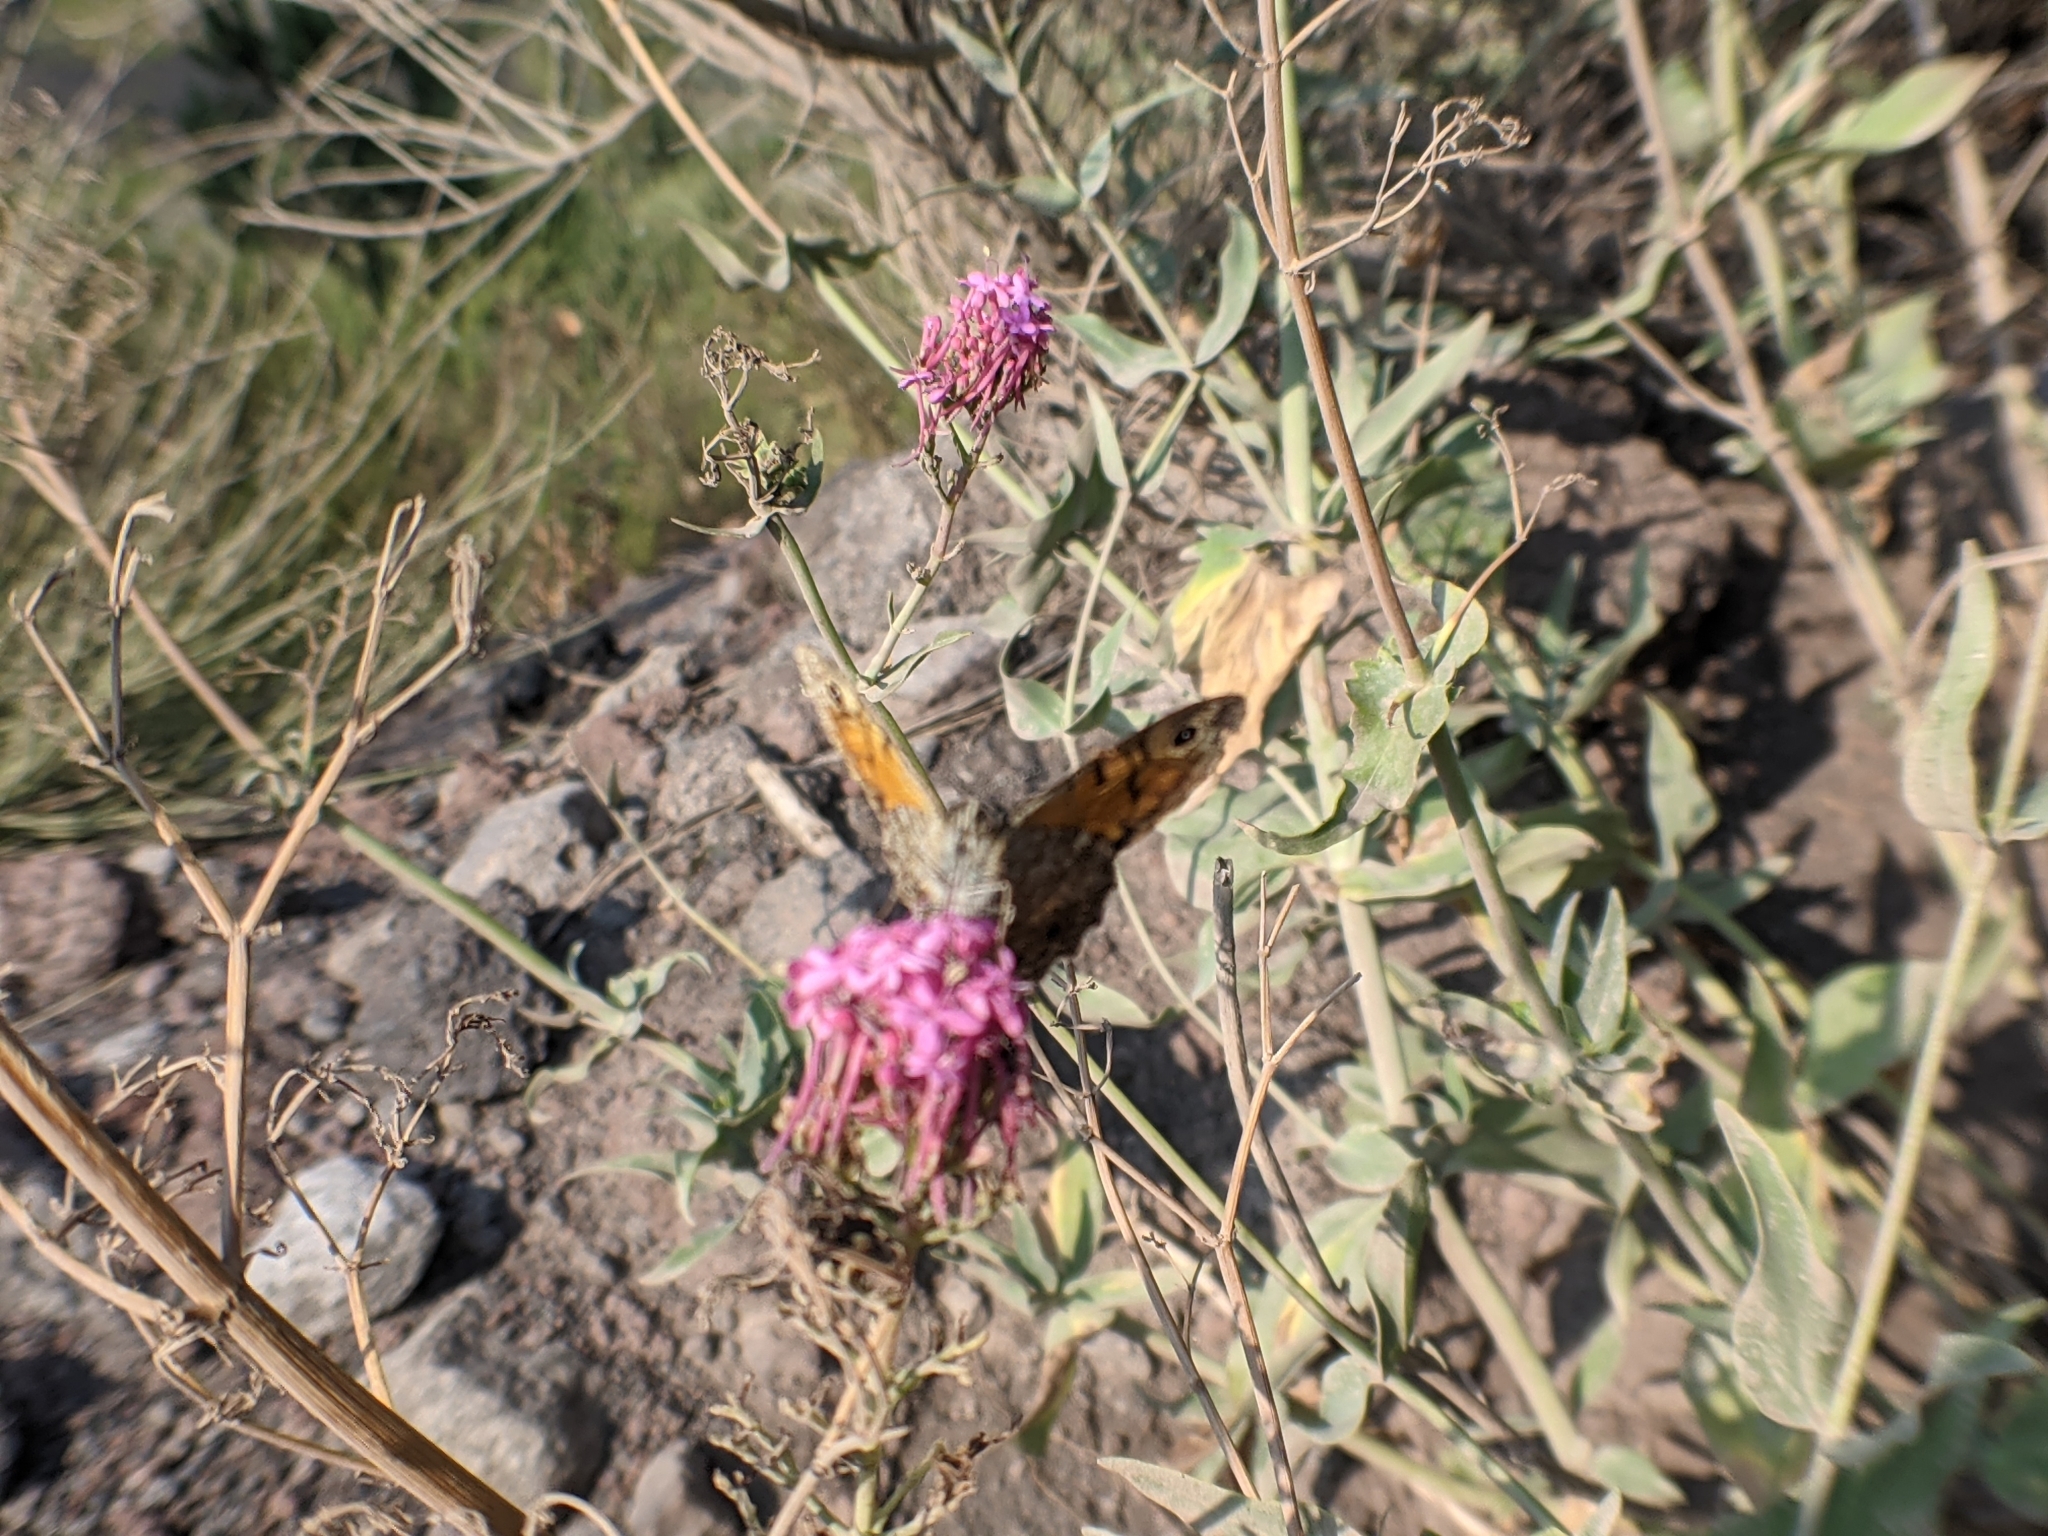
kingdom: Animalia
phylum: Arthropoda
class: Insecta
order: Lepidoptera
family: Nymphalidae
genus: Pararge
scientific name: Pararge Lasiommata megera
